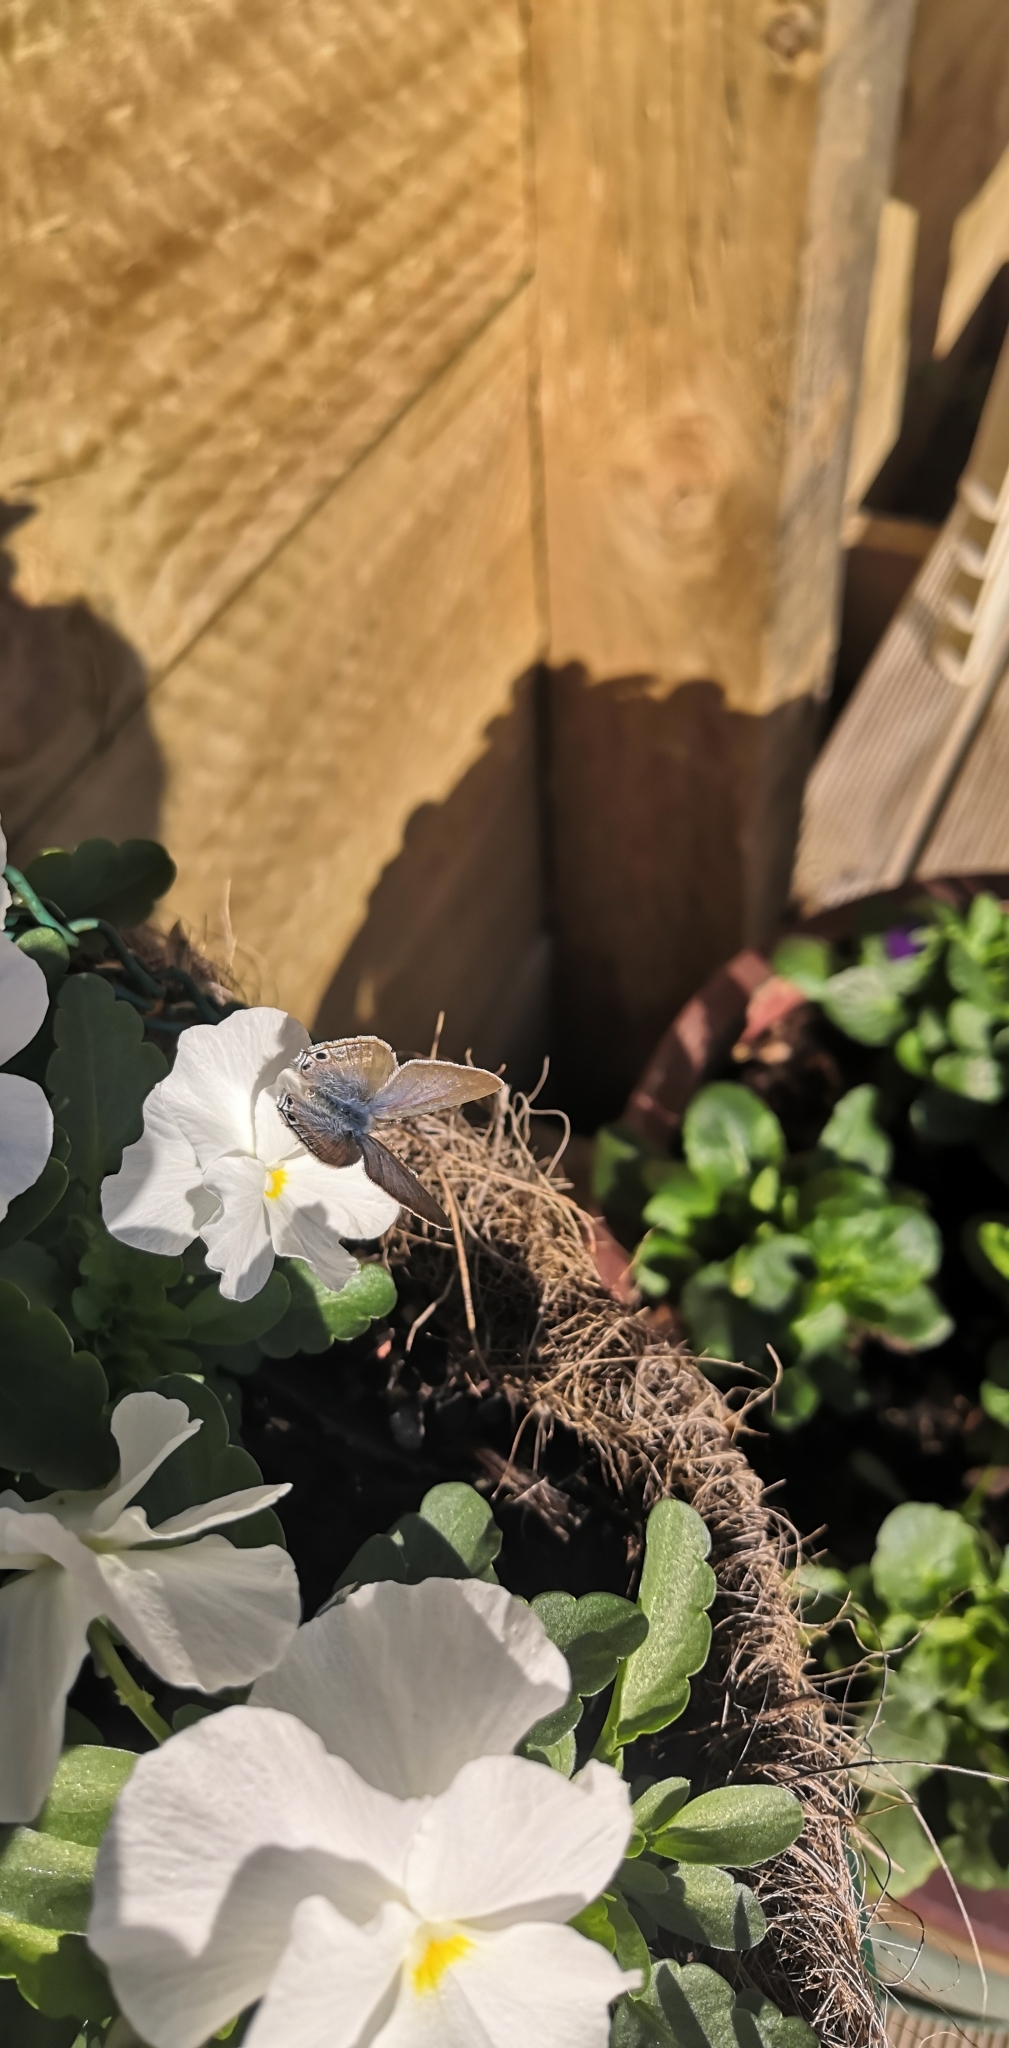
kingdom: Animalia
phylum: Arthropoda
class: Insecta
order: Lepidoptera
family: Lycaenidae
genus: Lampides
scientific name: Lampides boeticus
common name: Long-tailed blue
